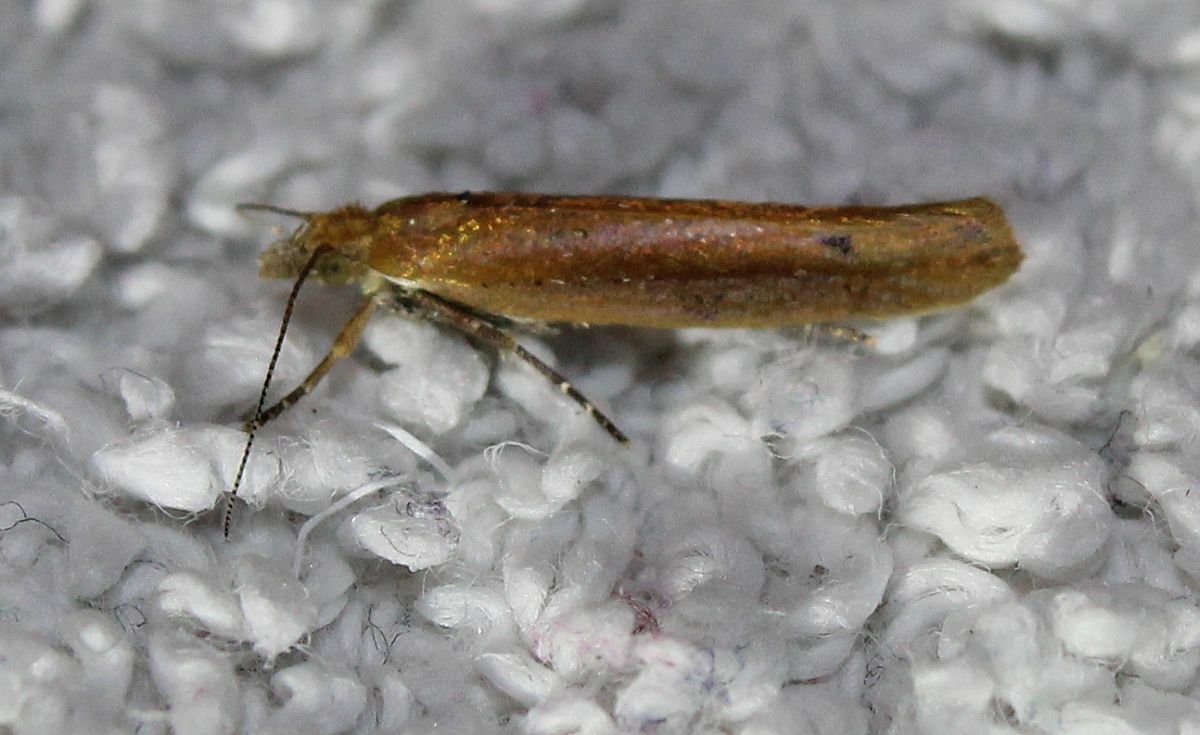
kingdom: Animalia
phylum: Arthropoda
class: Insecta
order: Lepidoptera
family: Plutellidae
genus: Ypsolophus
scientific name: Ypsolophus ustella
